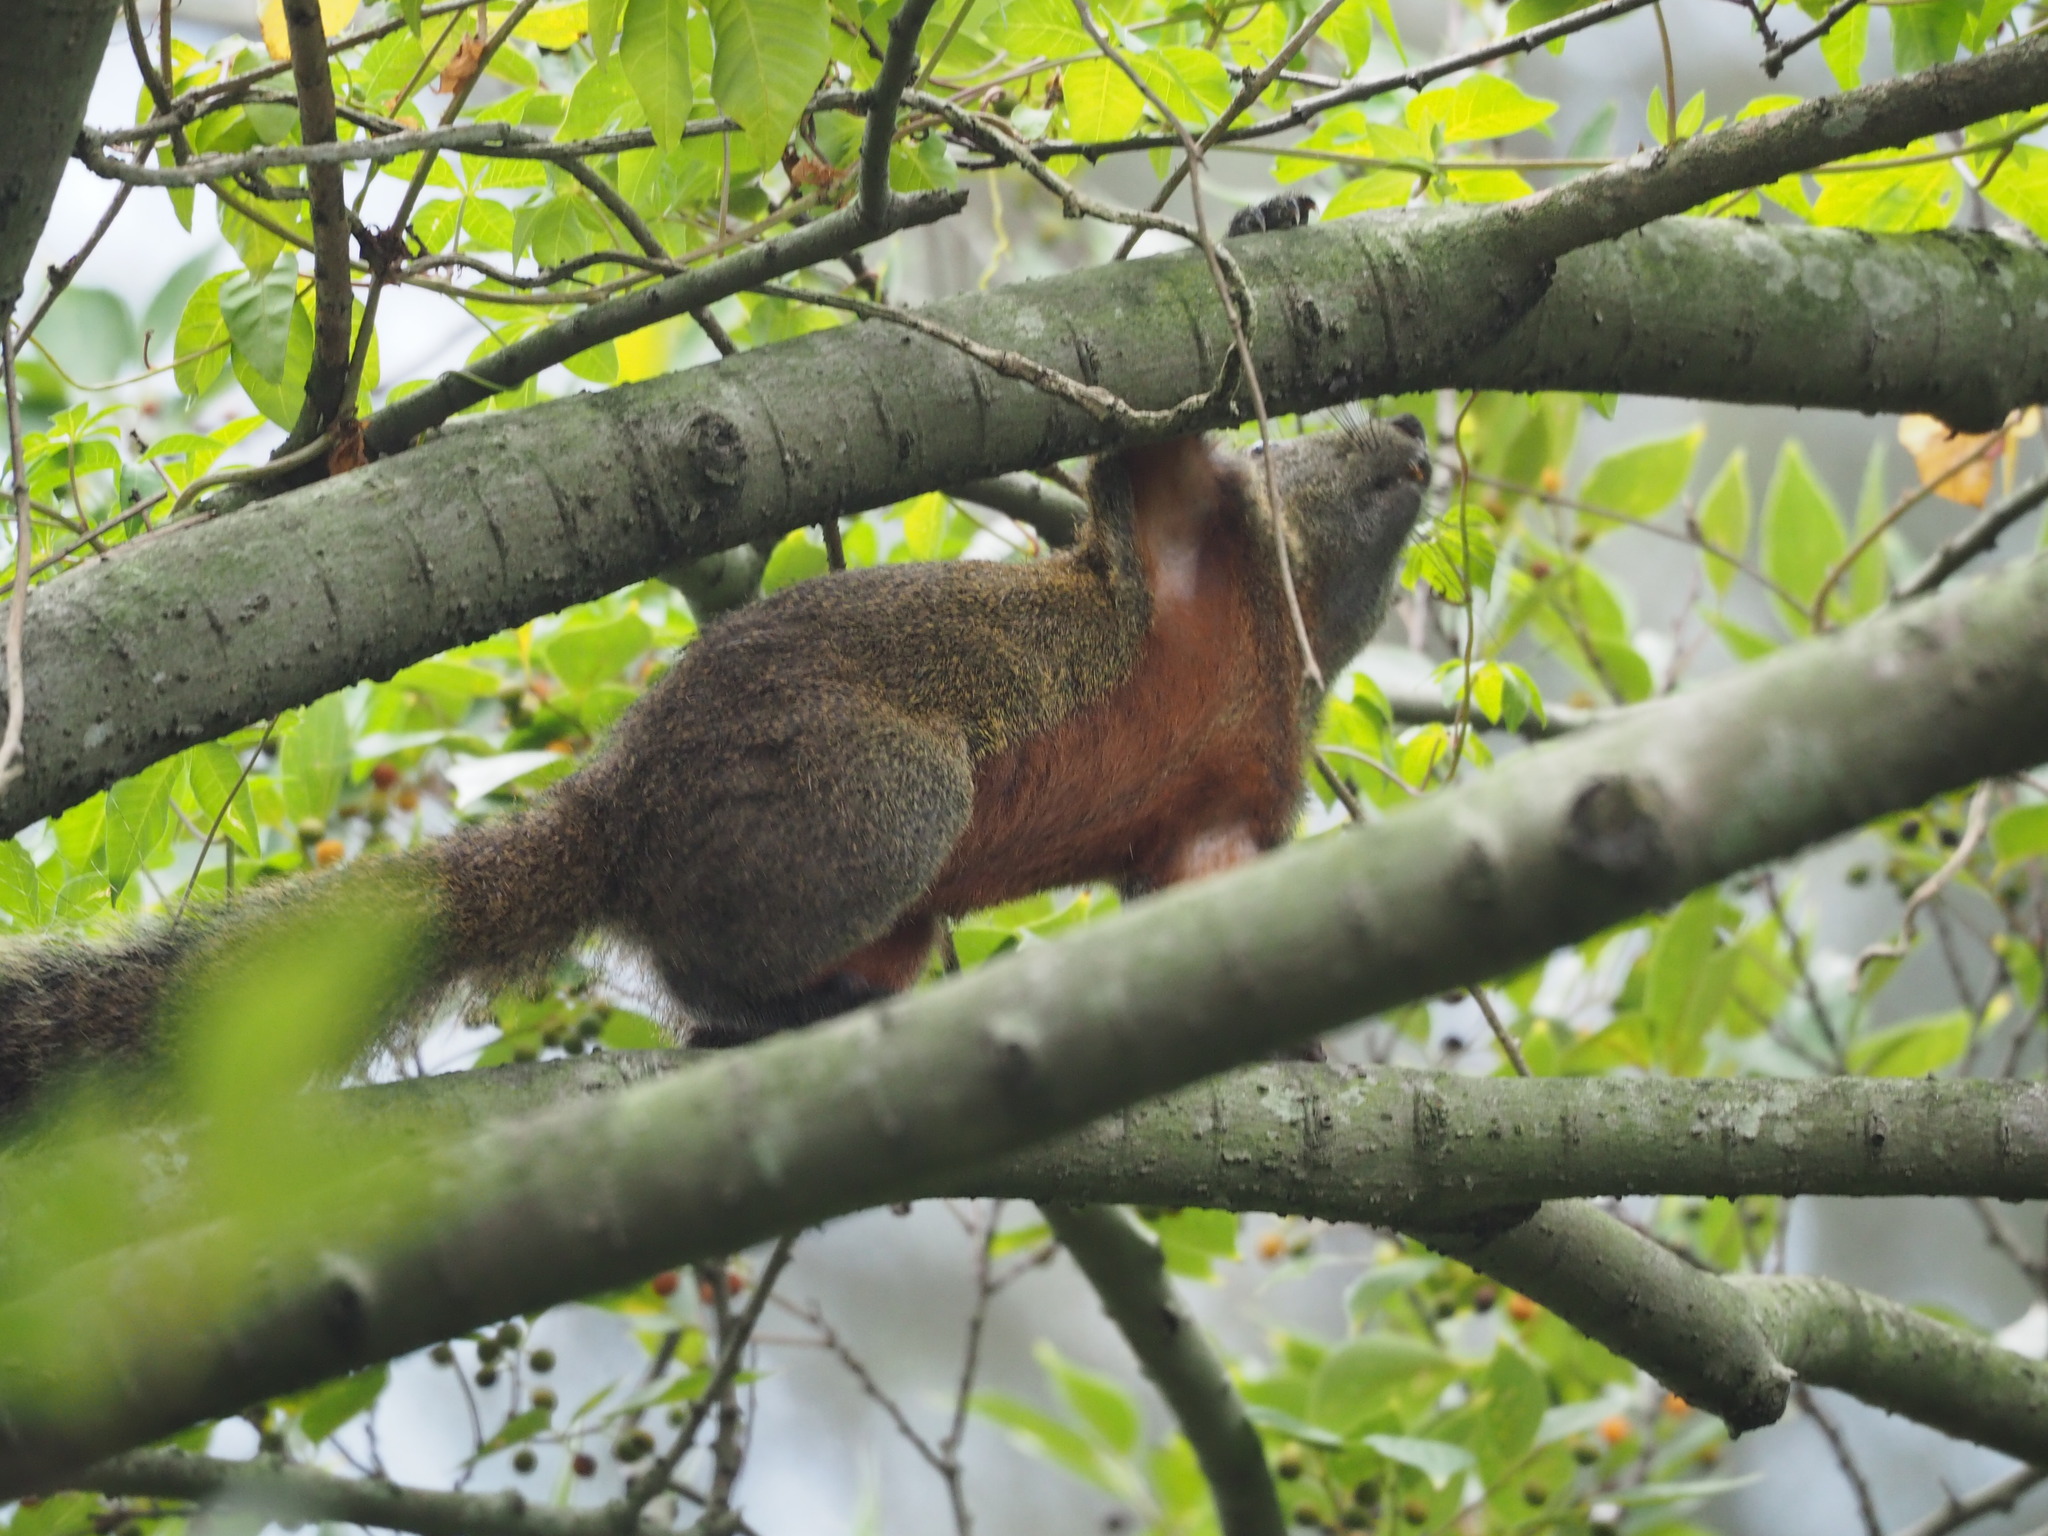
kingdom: Animalia
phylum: Chordata
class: Mammalia
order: Rodentia
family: Sciuridae
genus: Callosciurus
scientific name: Callosciurus erythraeus
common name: Pallas's squirrel
